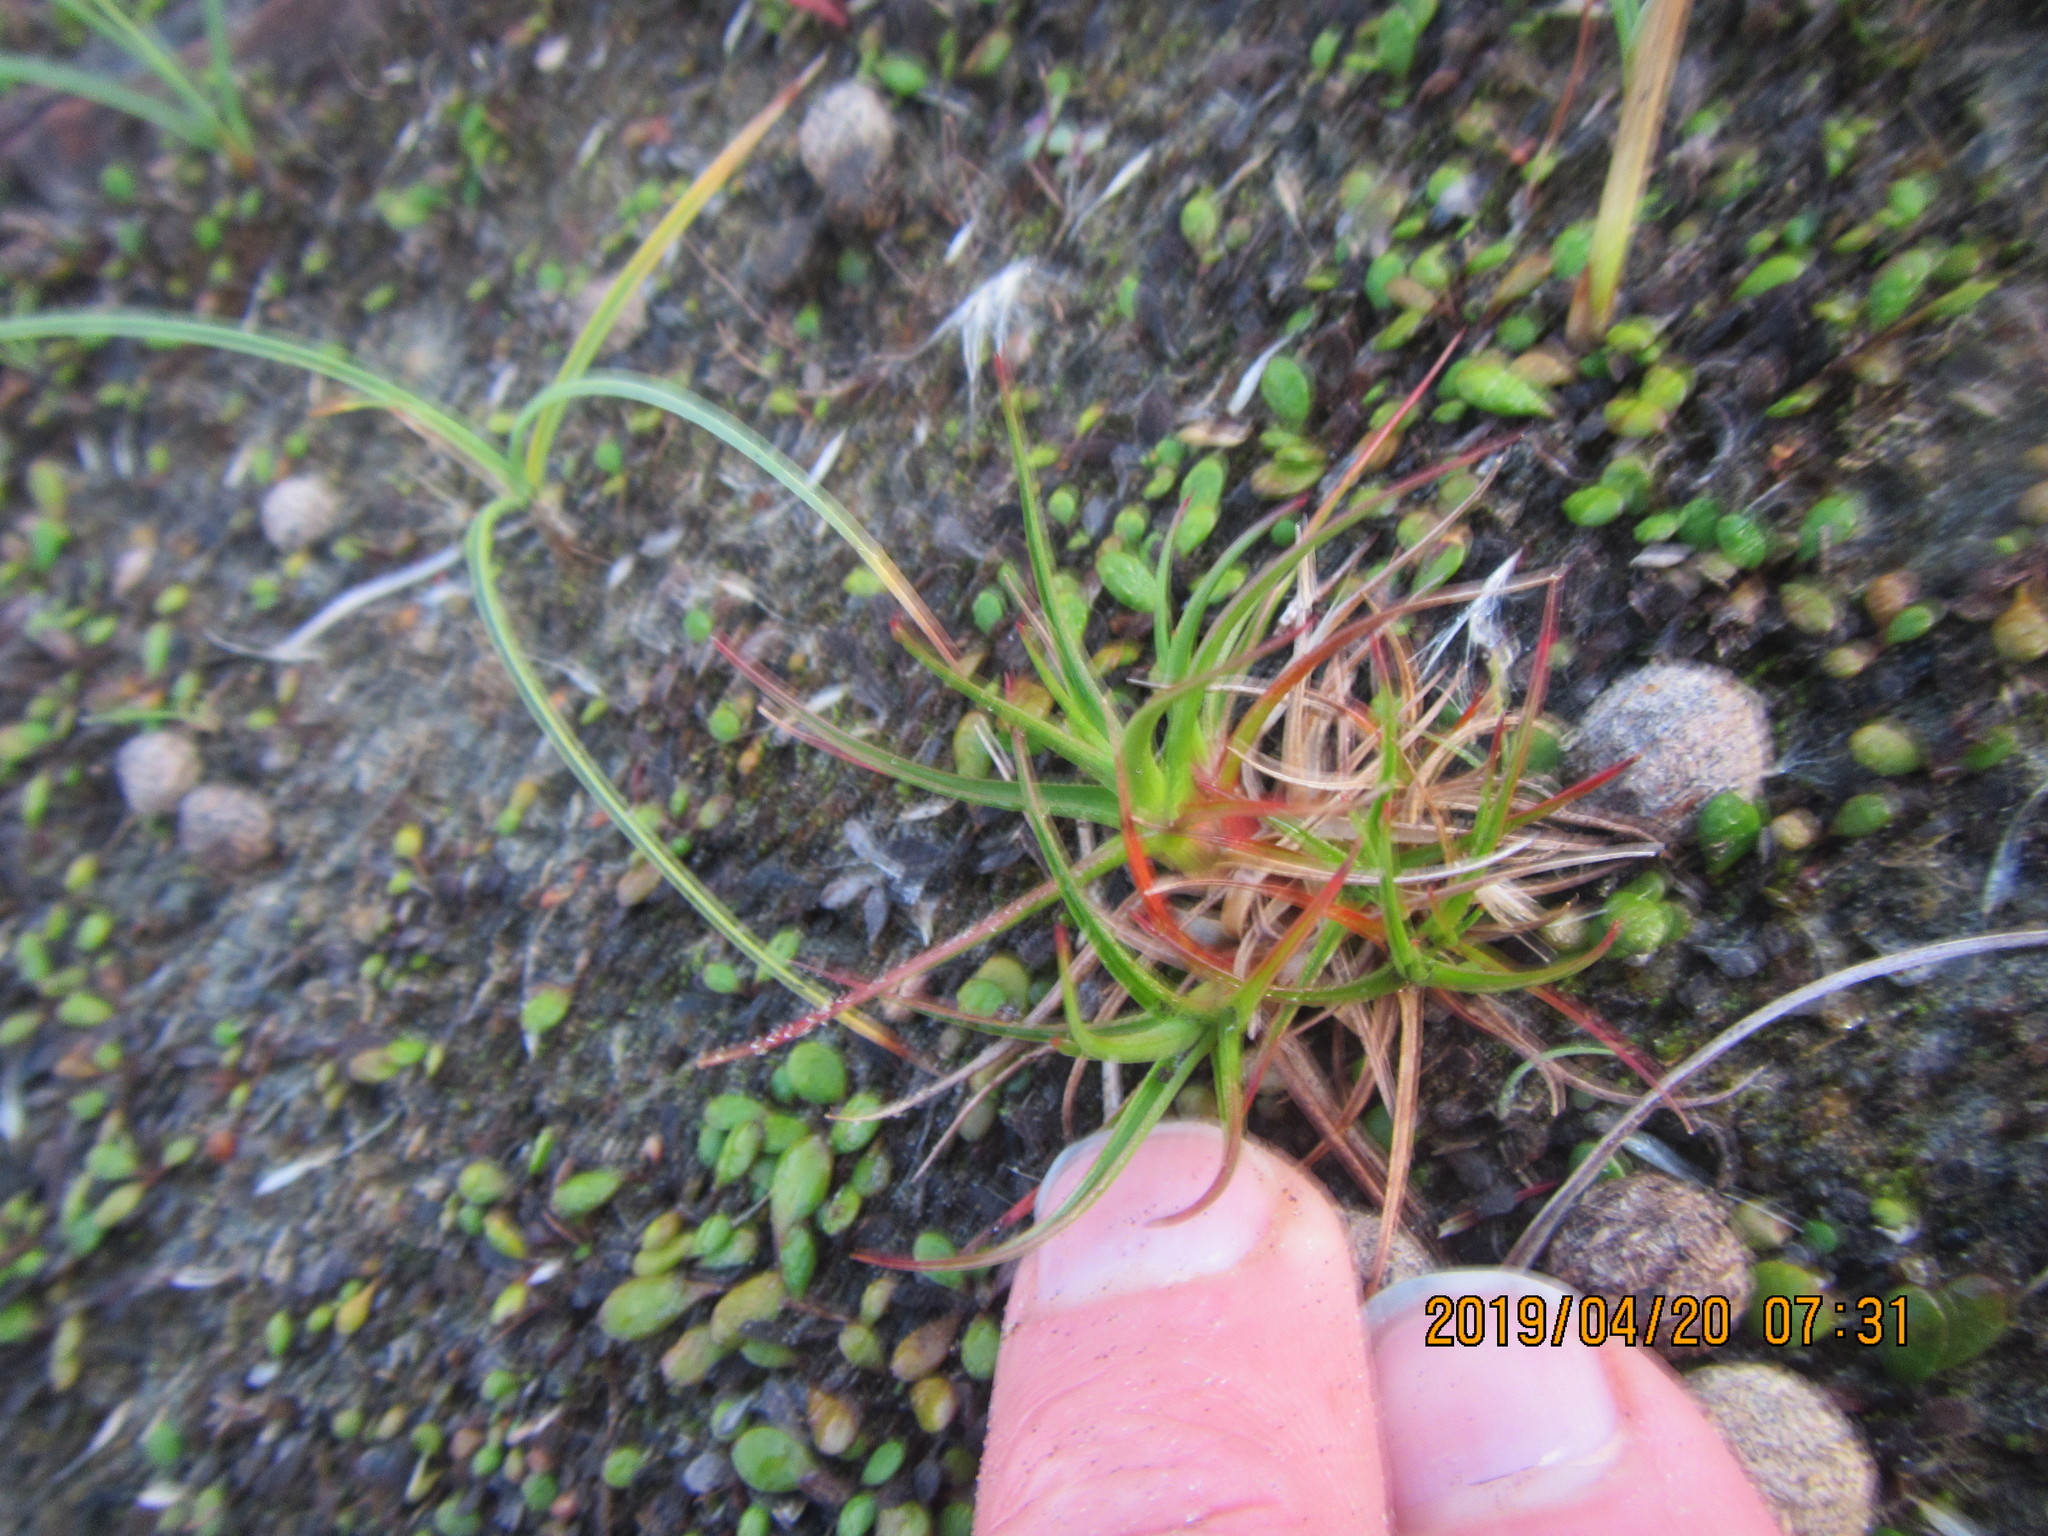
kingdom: Plantae
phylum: Tracheophyta
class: Liliopsida
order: Poales
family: Juncaceae
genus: Juncus
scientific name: Juncus caespiticius
